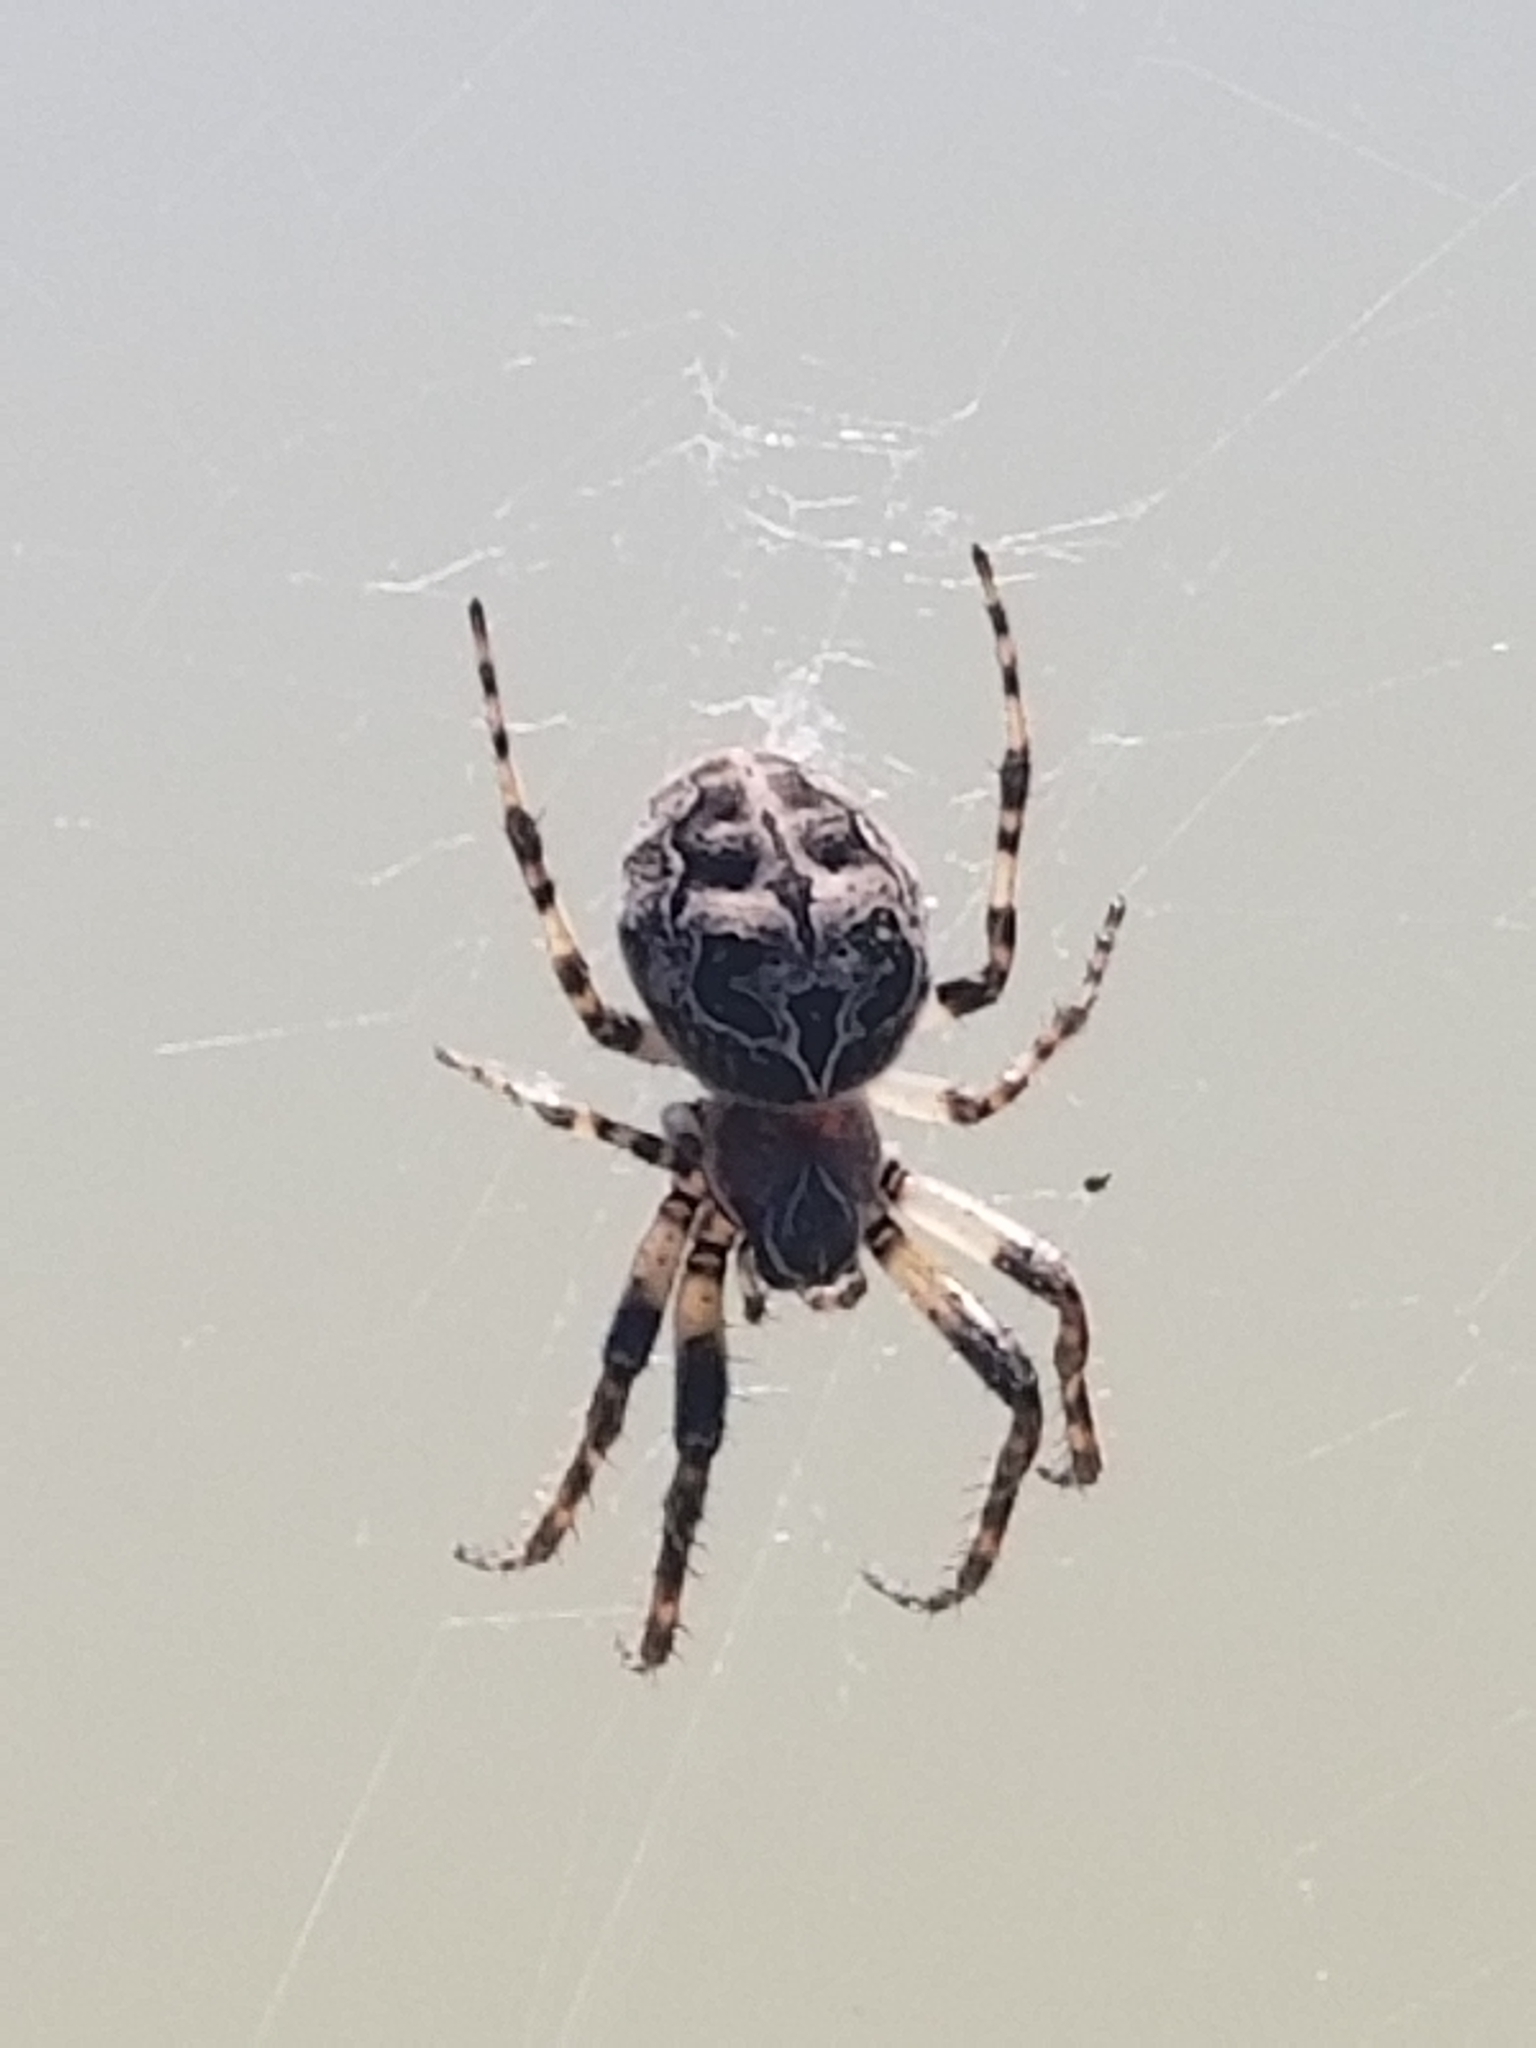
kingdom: Animalia
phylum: Arthropoda
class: Arachnida
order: Araneae
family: Araneidae
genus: Larinioides
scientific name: Larinioides sclopetarius
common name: Bridge orbweaver
